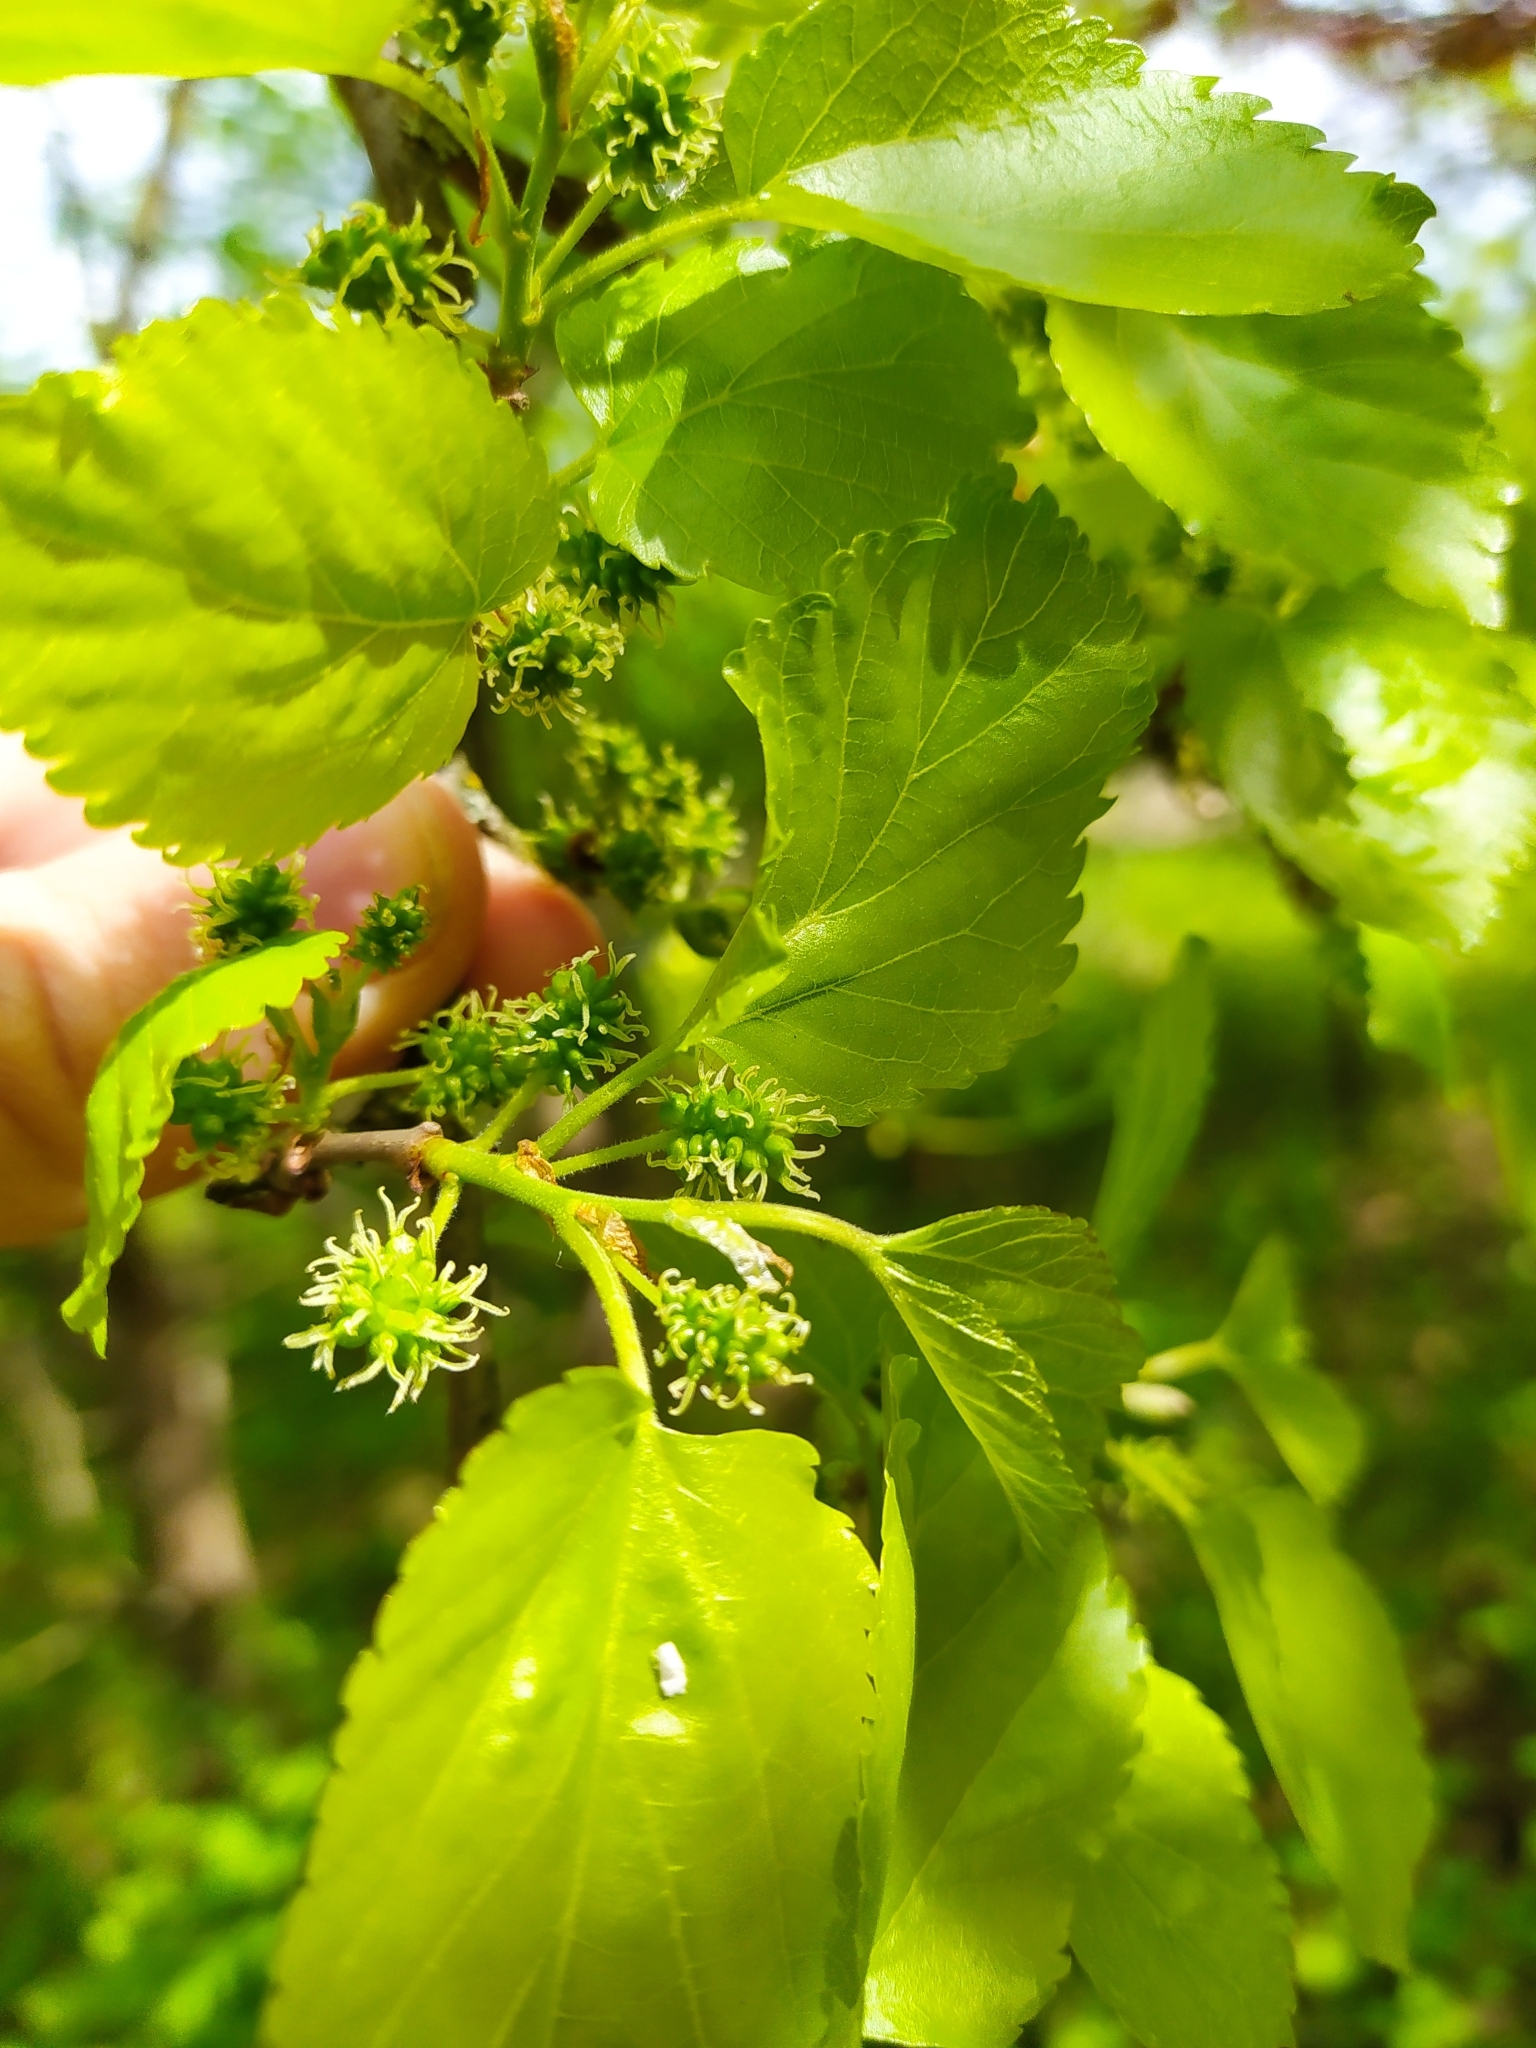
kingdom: Plantae
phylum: Tracheophyta
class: Magnoliopsida
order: Rosales
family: Moraceae
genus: Morus
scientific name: Morus alba
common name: White mulberry
